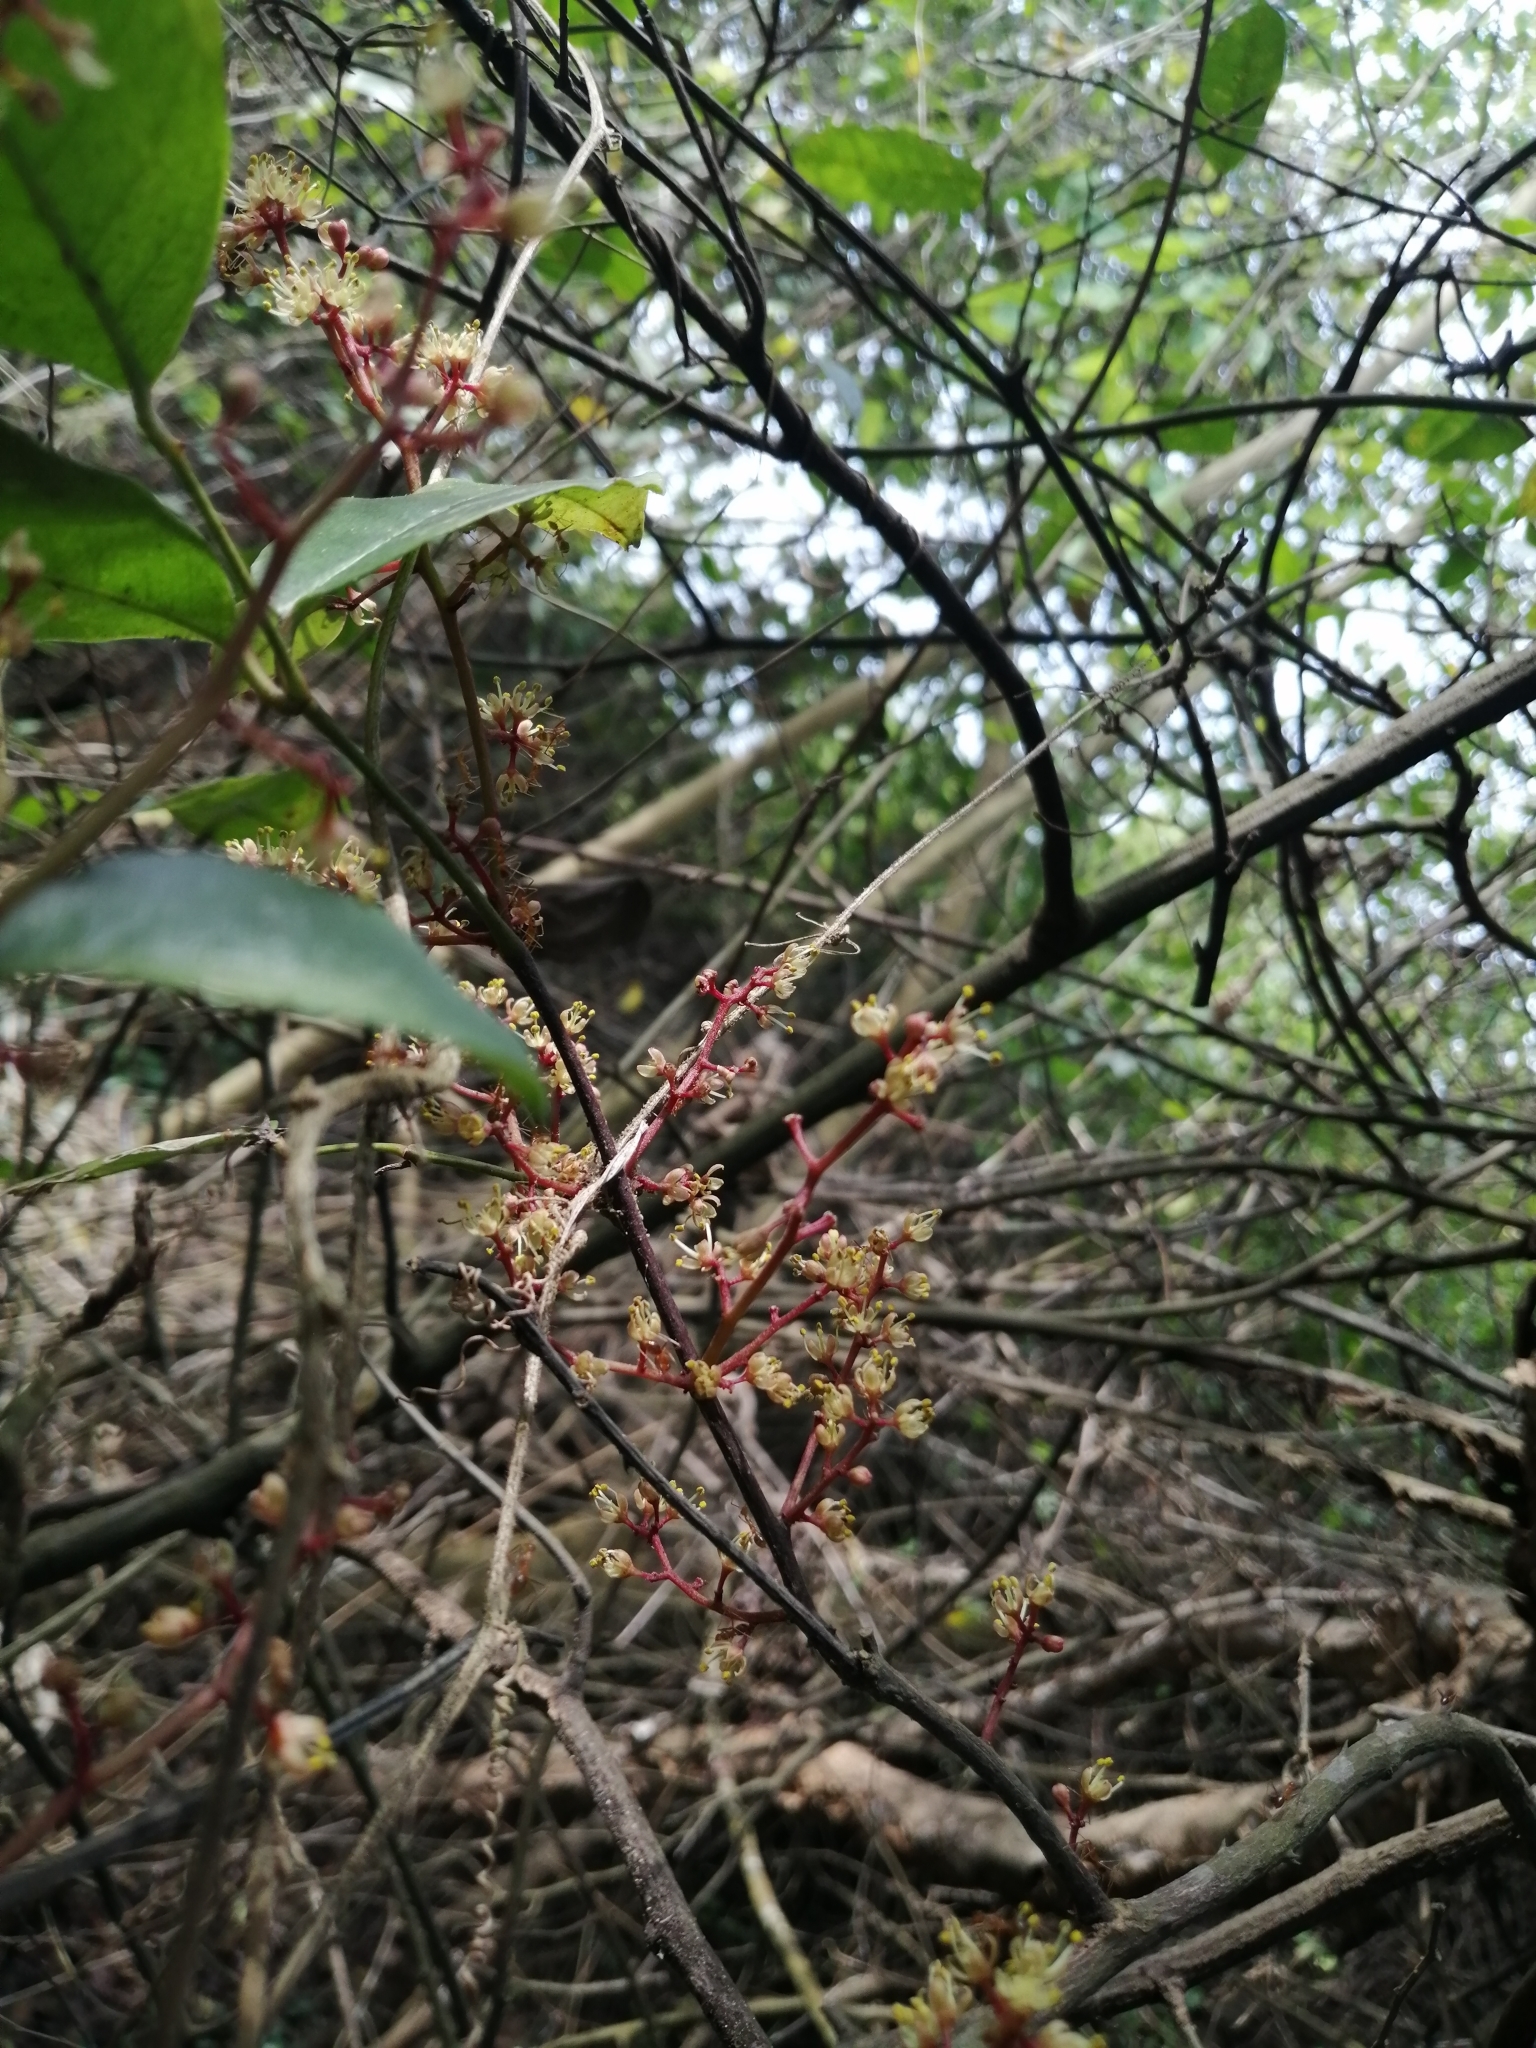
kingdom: Plantae
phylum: Tracheophyta
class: Magnoliopsida
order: Sapindales
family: Rutaceae
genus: Zanthoxylum
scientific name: Zanthoxylum nitidum
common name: Shiny-leaf prickly-ash
